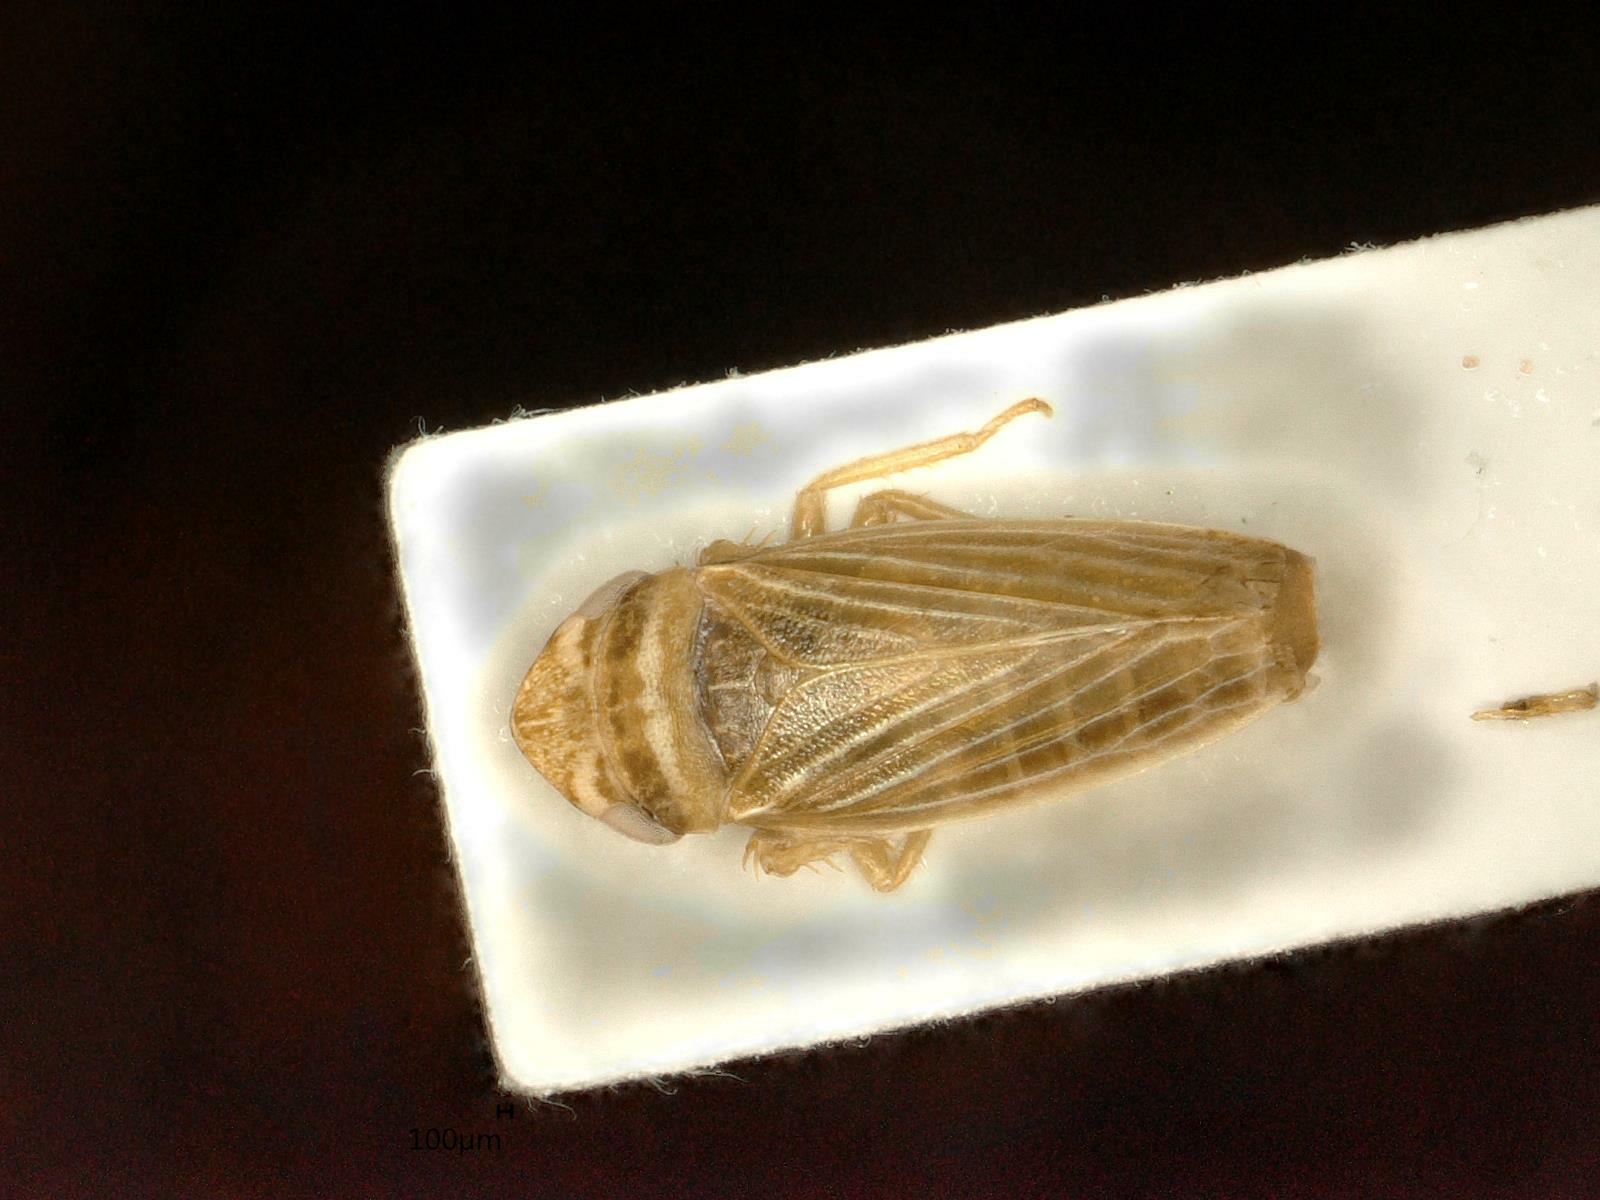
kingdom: Animalia
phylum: Arthropoda
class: Insecta
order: Hemiptera
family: Cicadellidae
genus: Aphrodes
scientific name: Aphrodes makarovi
